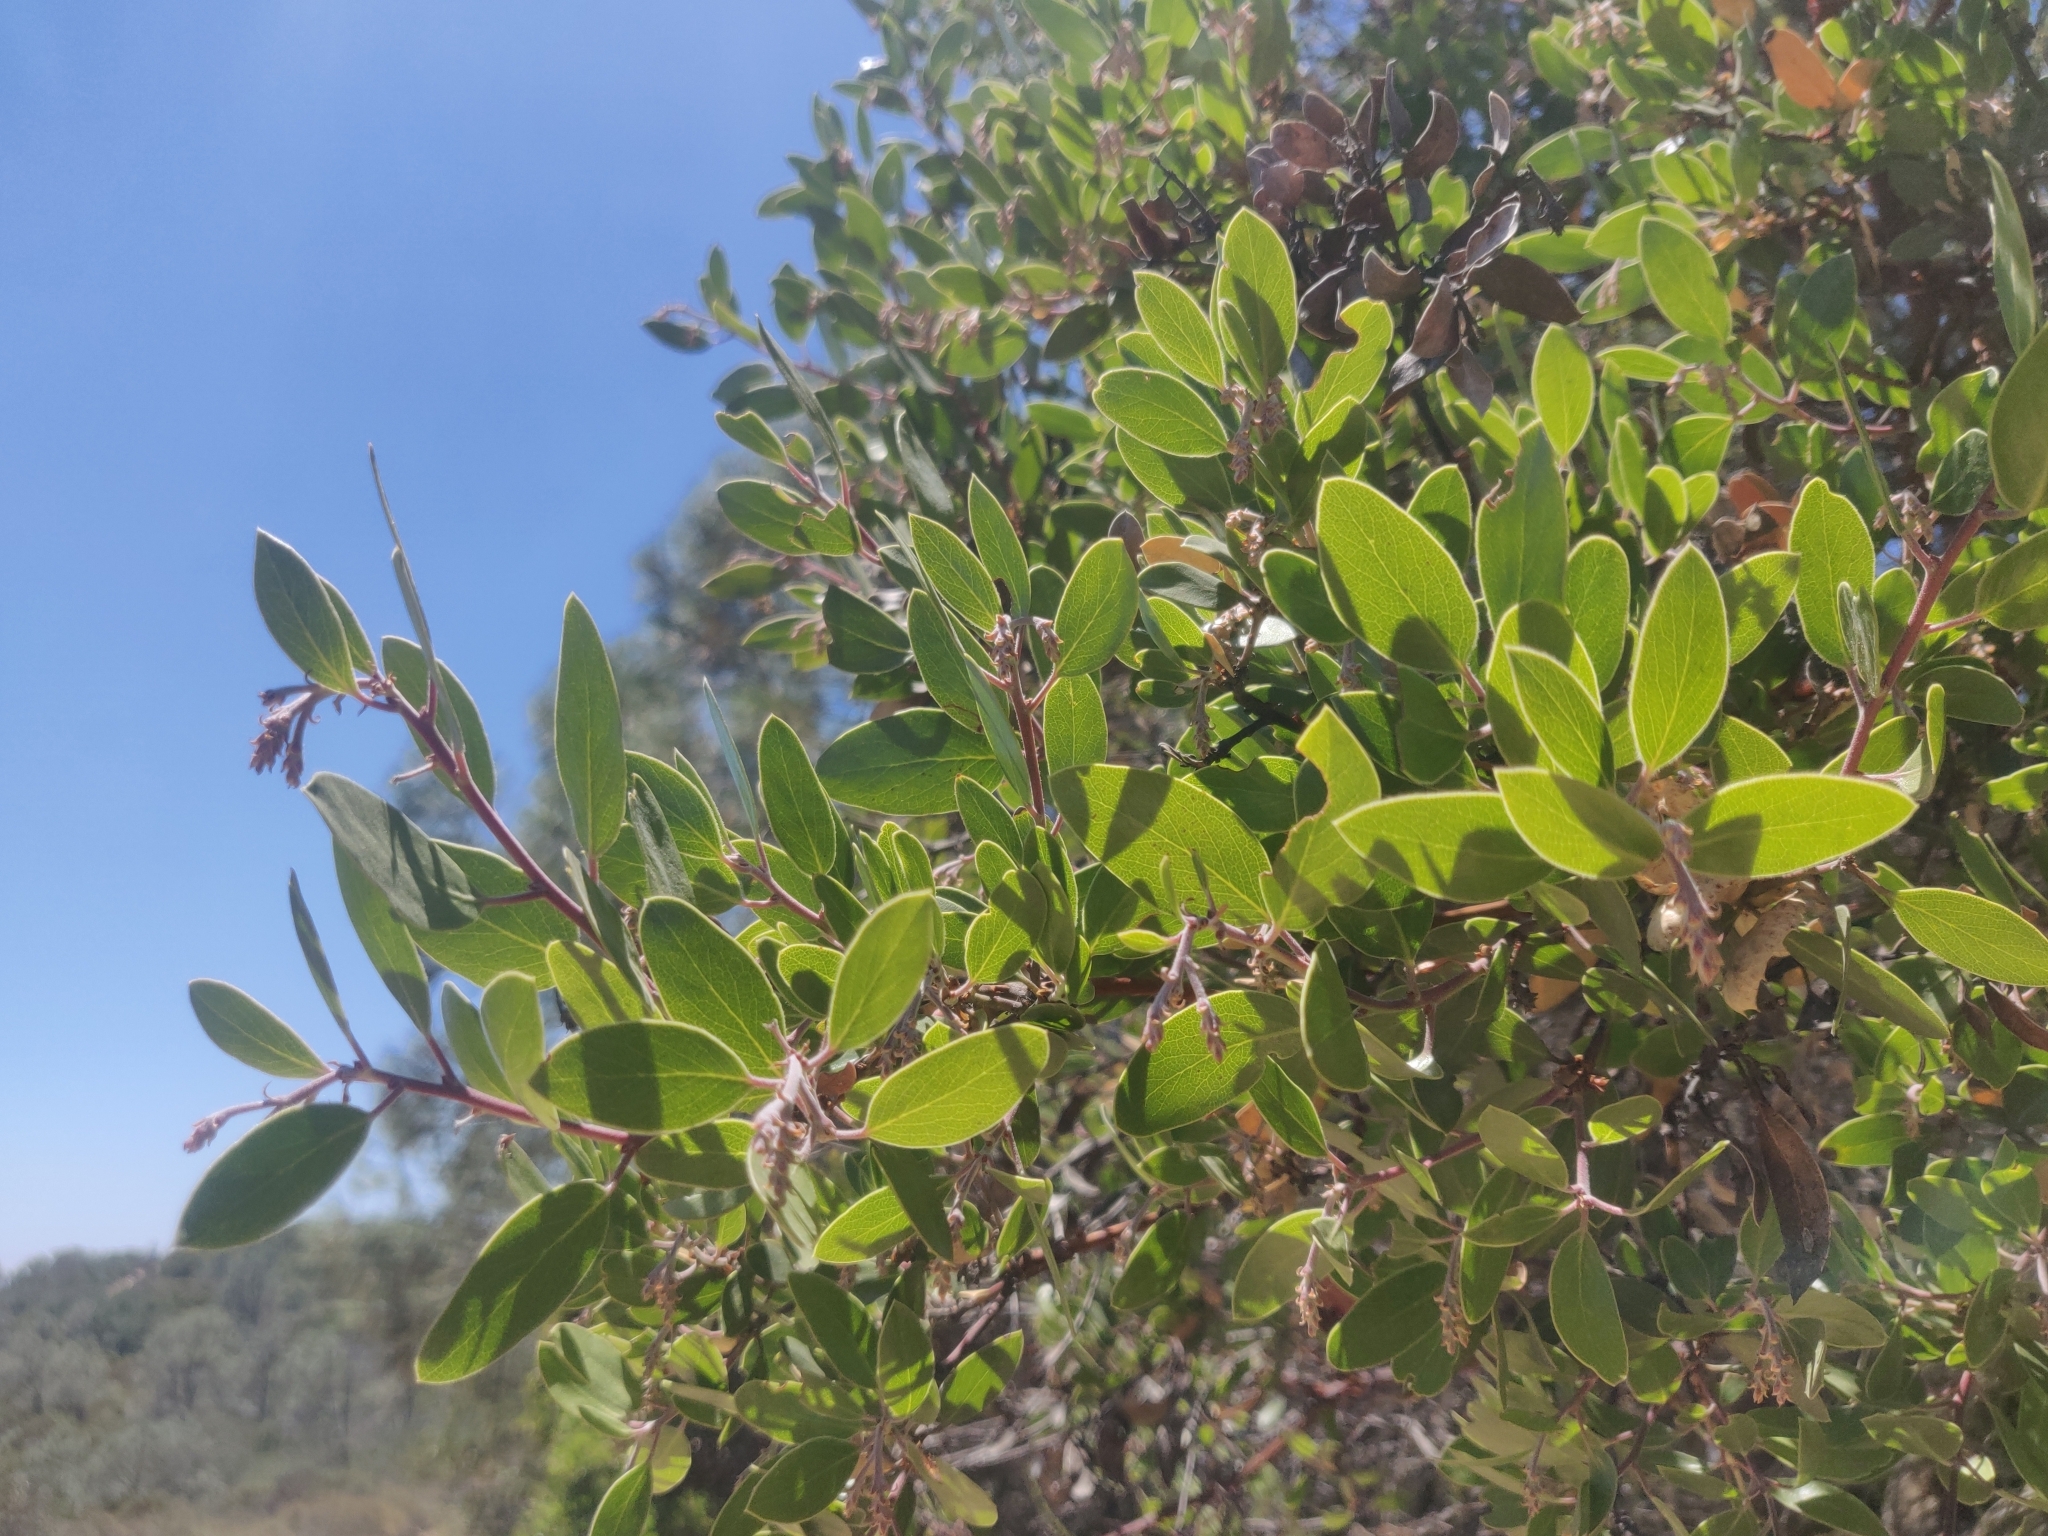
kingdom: Plantae
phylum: Tracheophyta
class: Magnoliopsida
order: Ericales
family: Ericaceae
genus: Arctostaphylos
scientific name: Arctostaphylos manzanita
